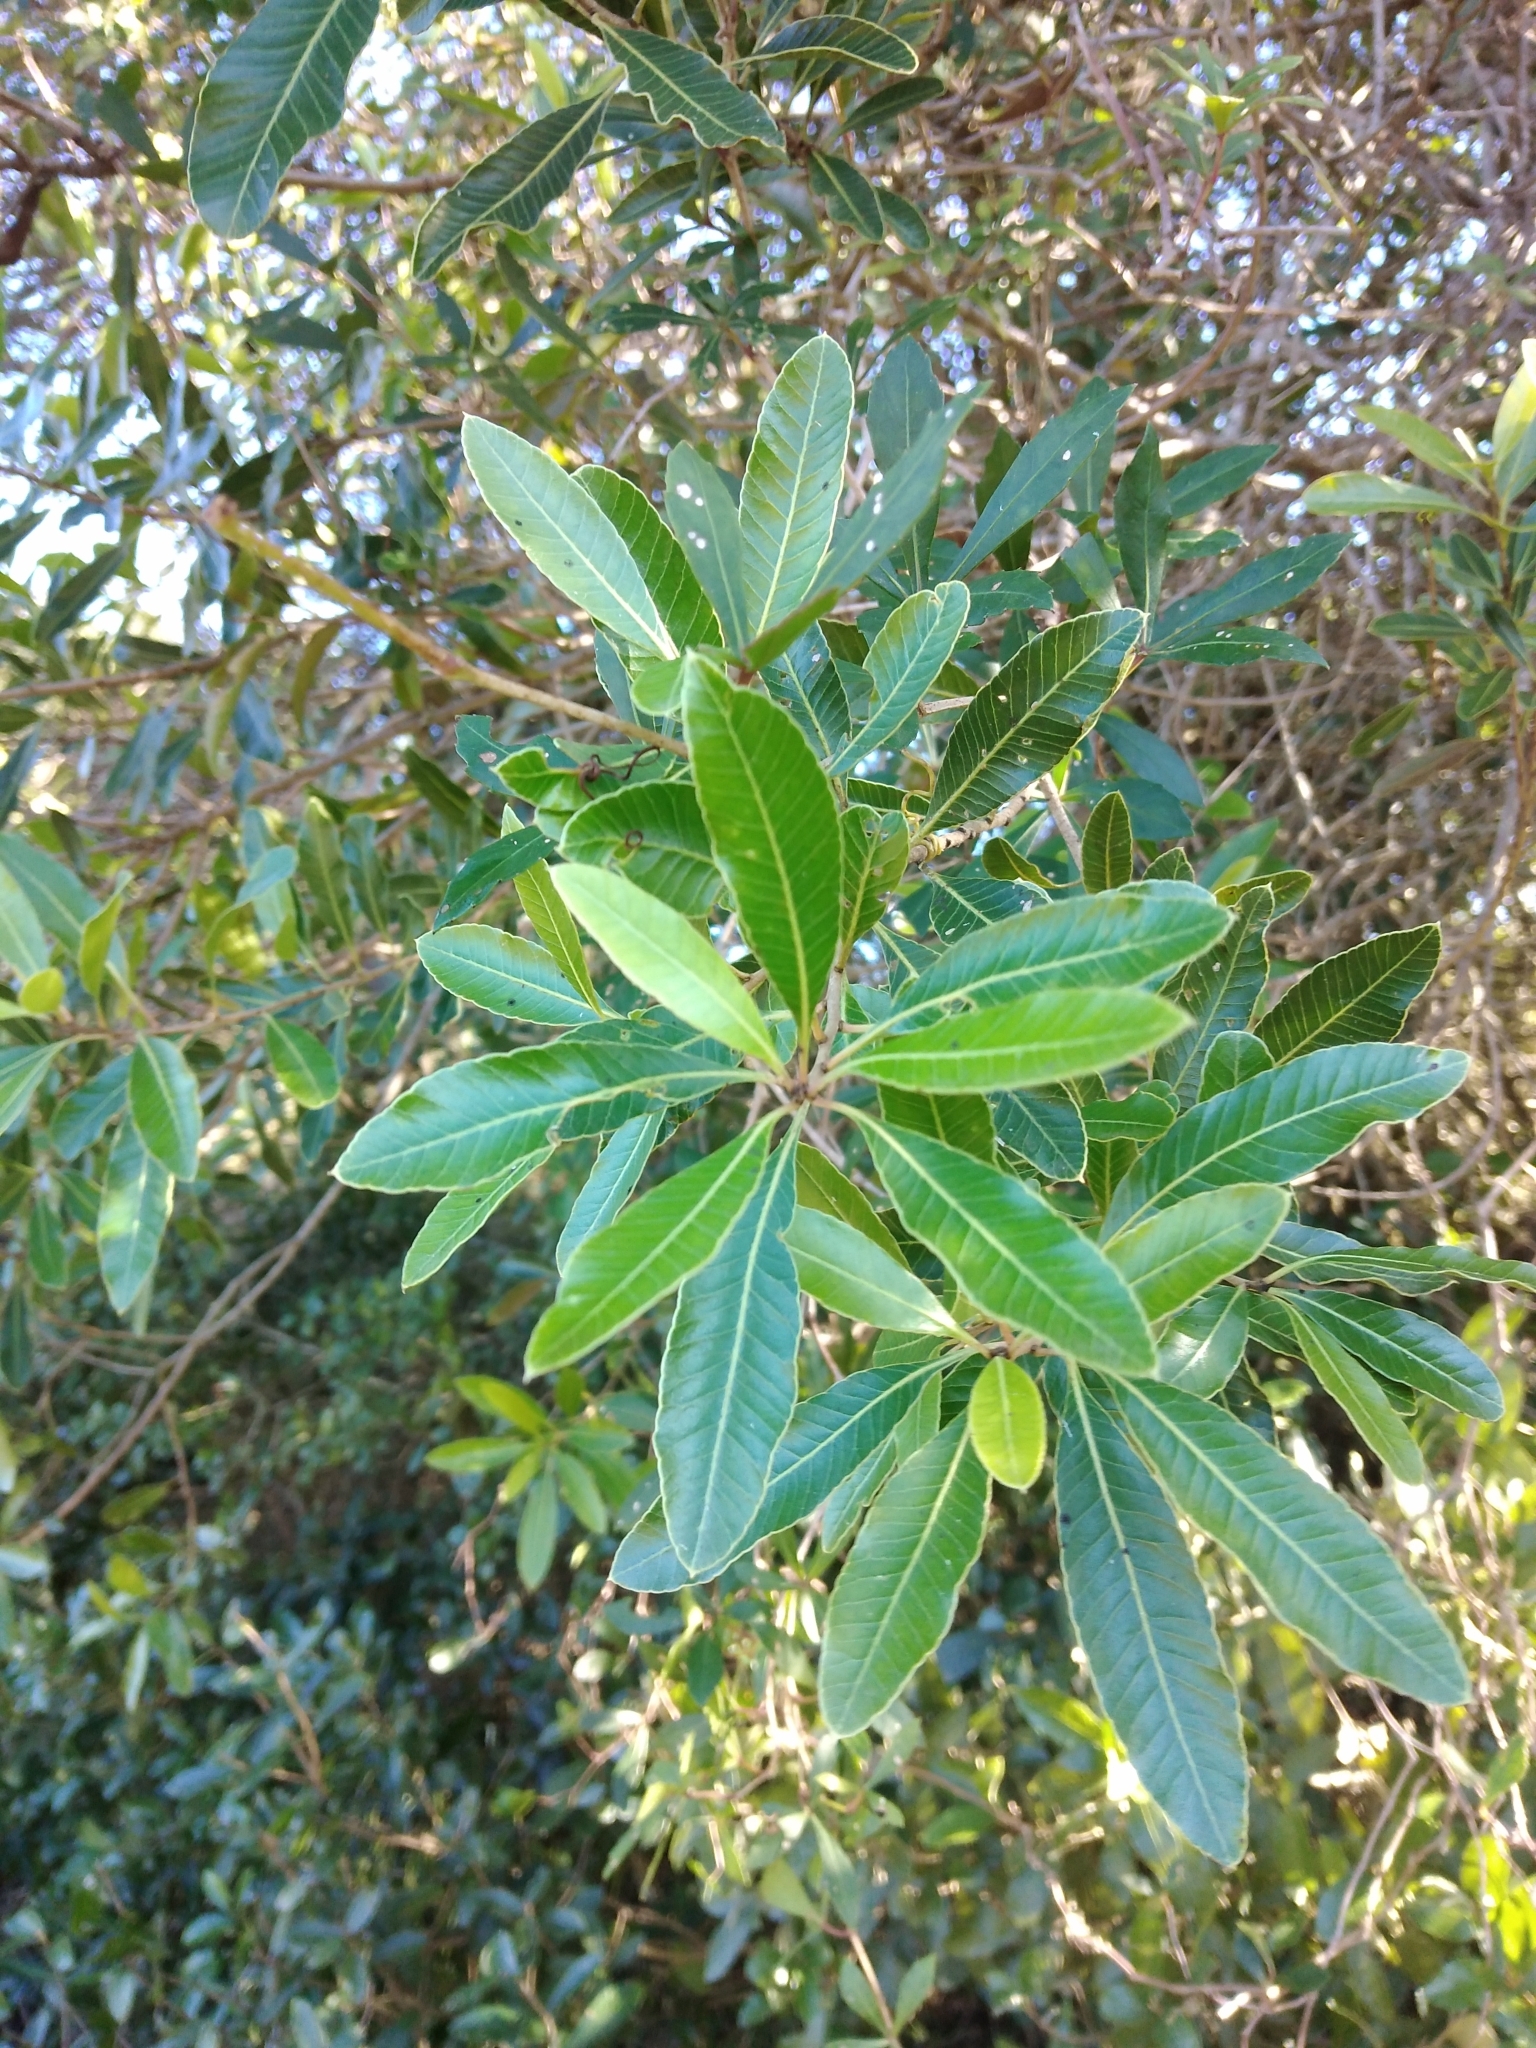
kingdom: Plantae
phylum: Tracheophyta
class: Magnoliopsida
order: Sapindales
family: Anacardiaceae
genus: Lithraea
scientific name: Lithraea brasiliensis
